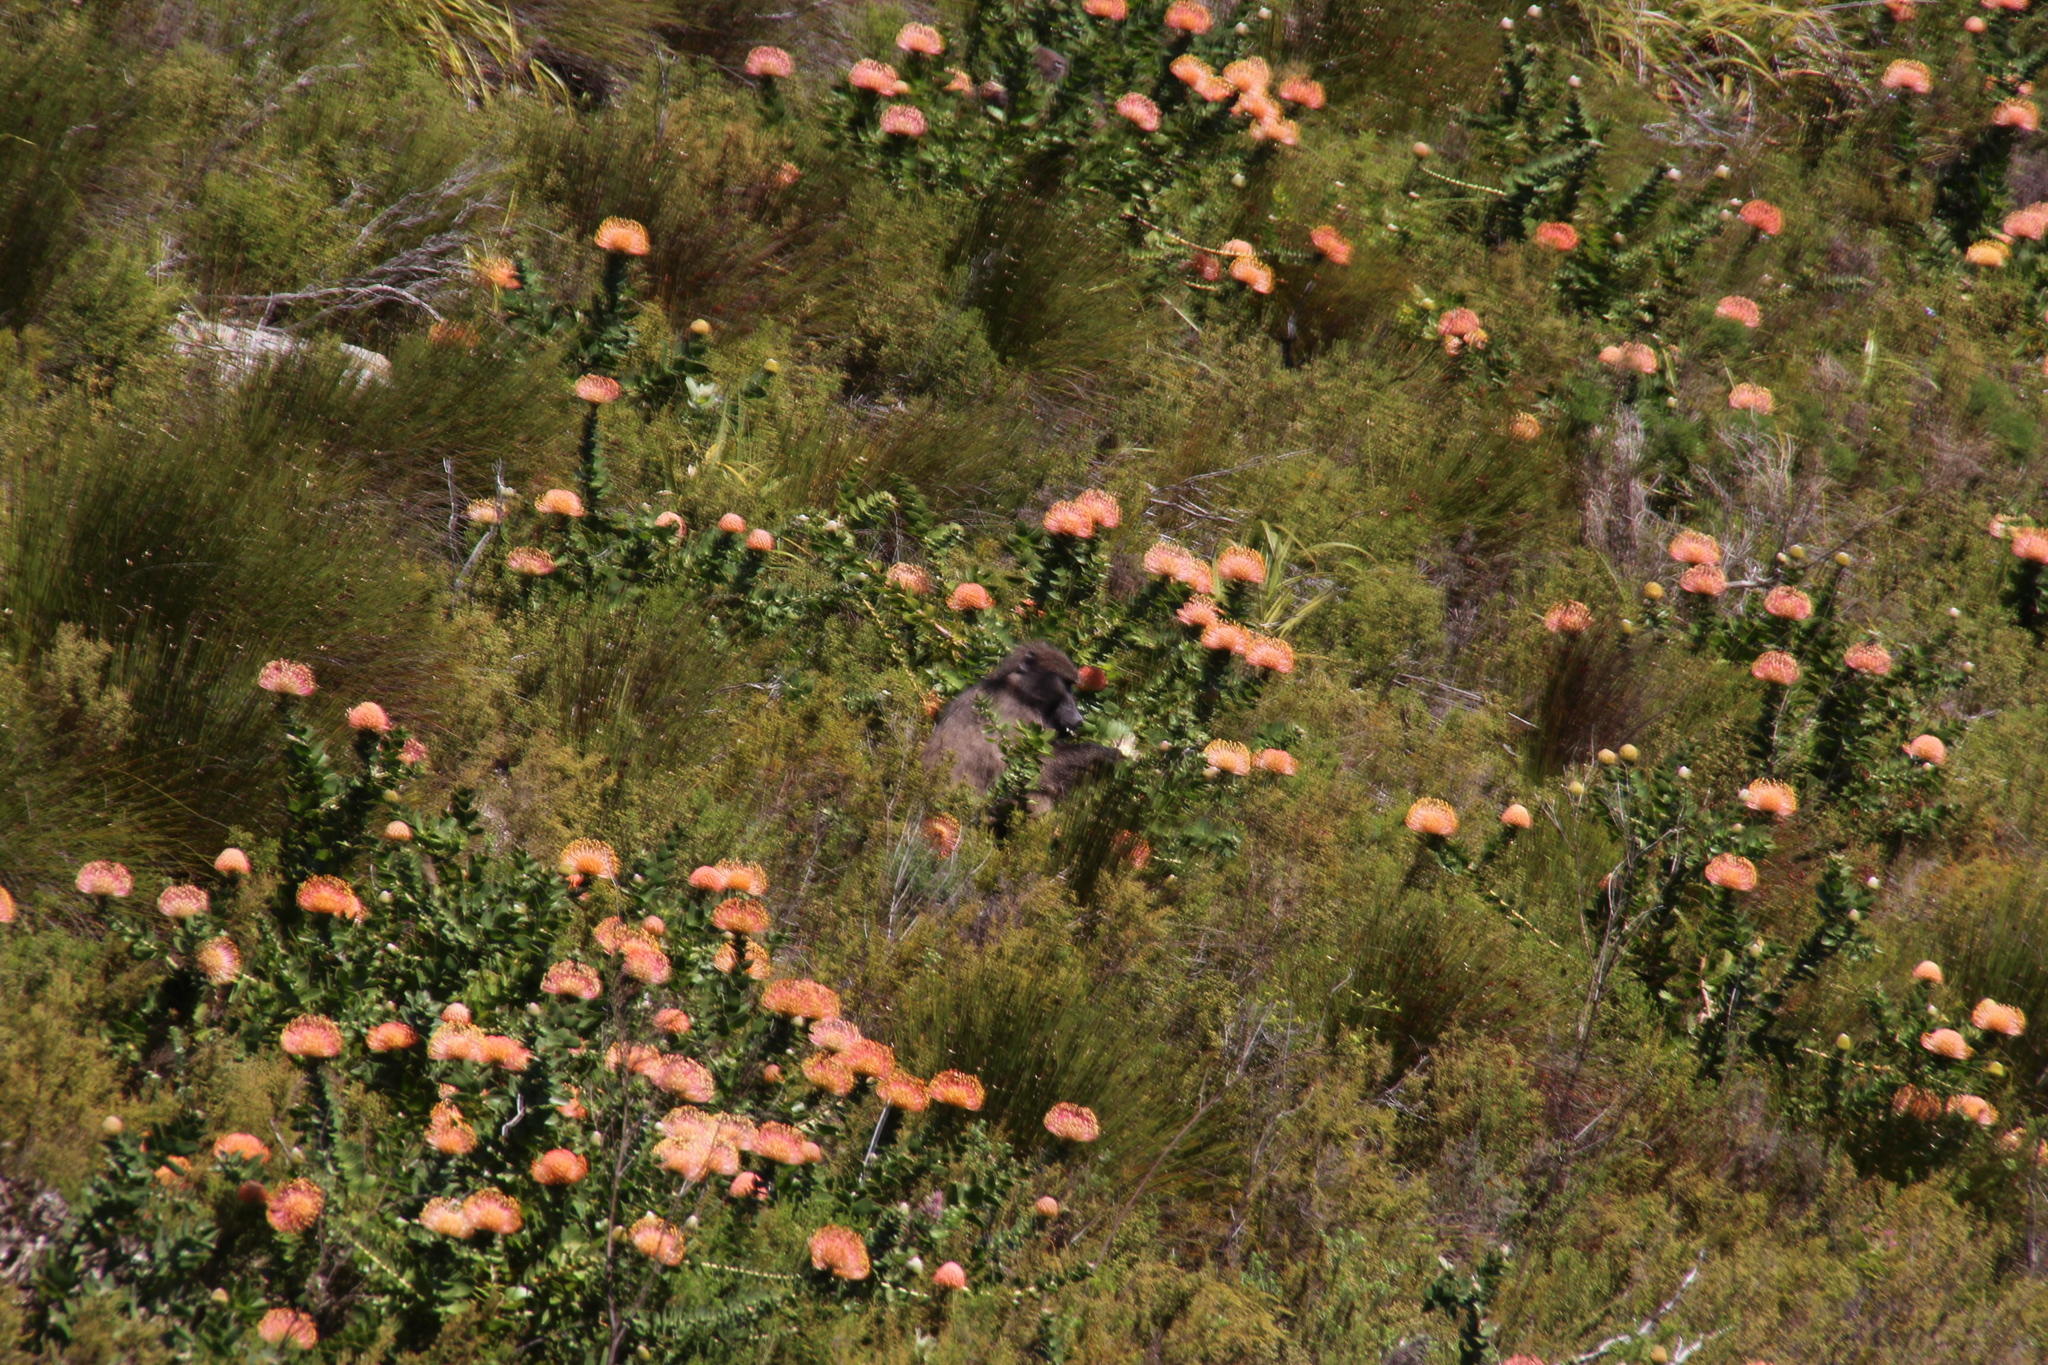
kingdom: Animalia
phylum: Chordata
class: Mammalia
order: Primates
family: Cercopithecidae
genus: Papio
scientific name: Papio ursinus
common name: Chacma baboon
